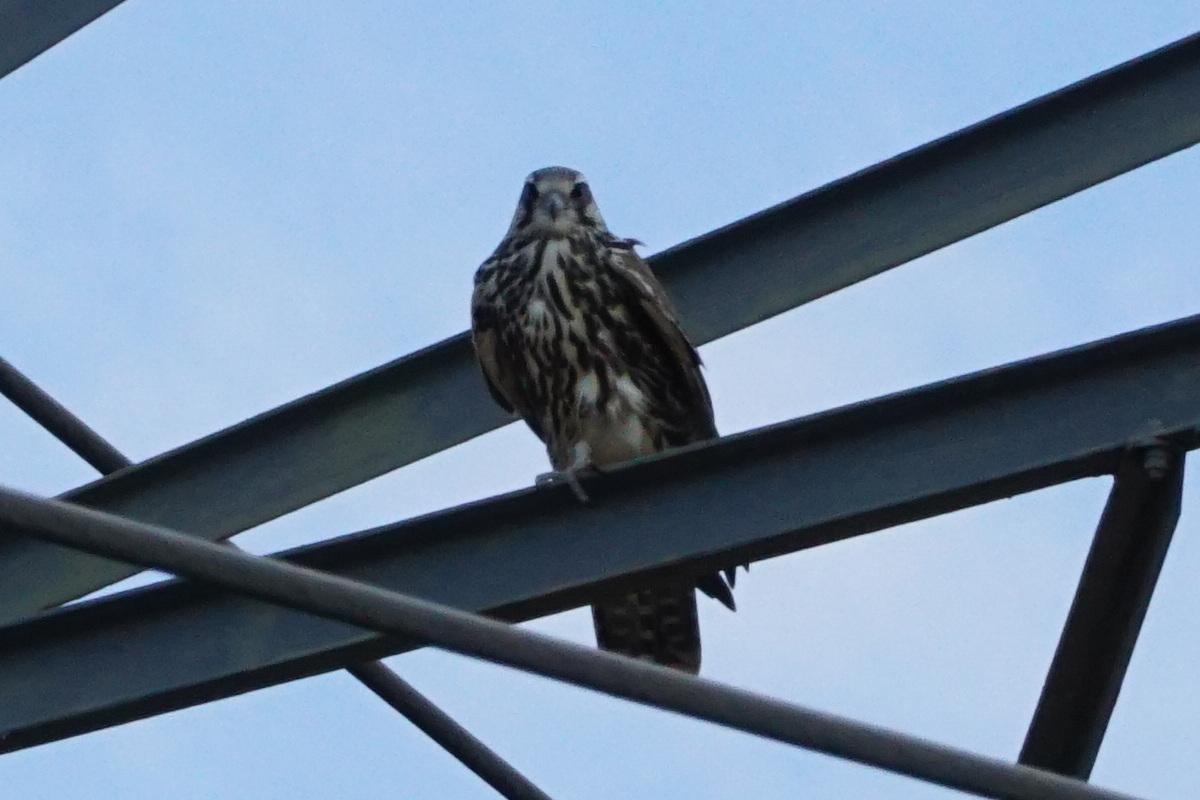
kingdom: Animalia
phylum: Chordata
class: Aves
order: Falconiformes
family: Falconidae
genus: Falco
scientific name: Falco cherrug
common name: Saker falcon
